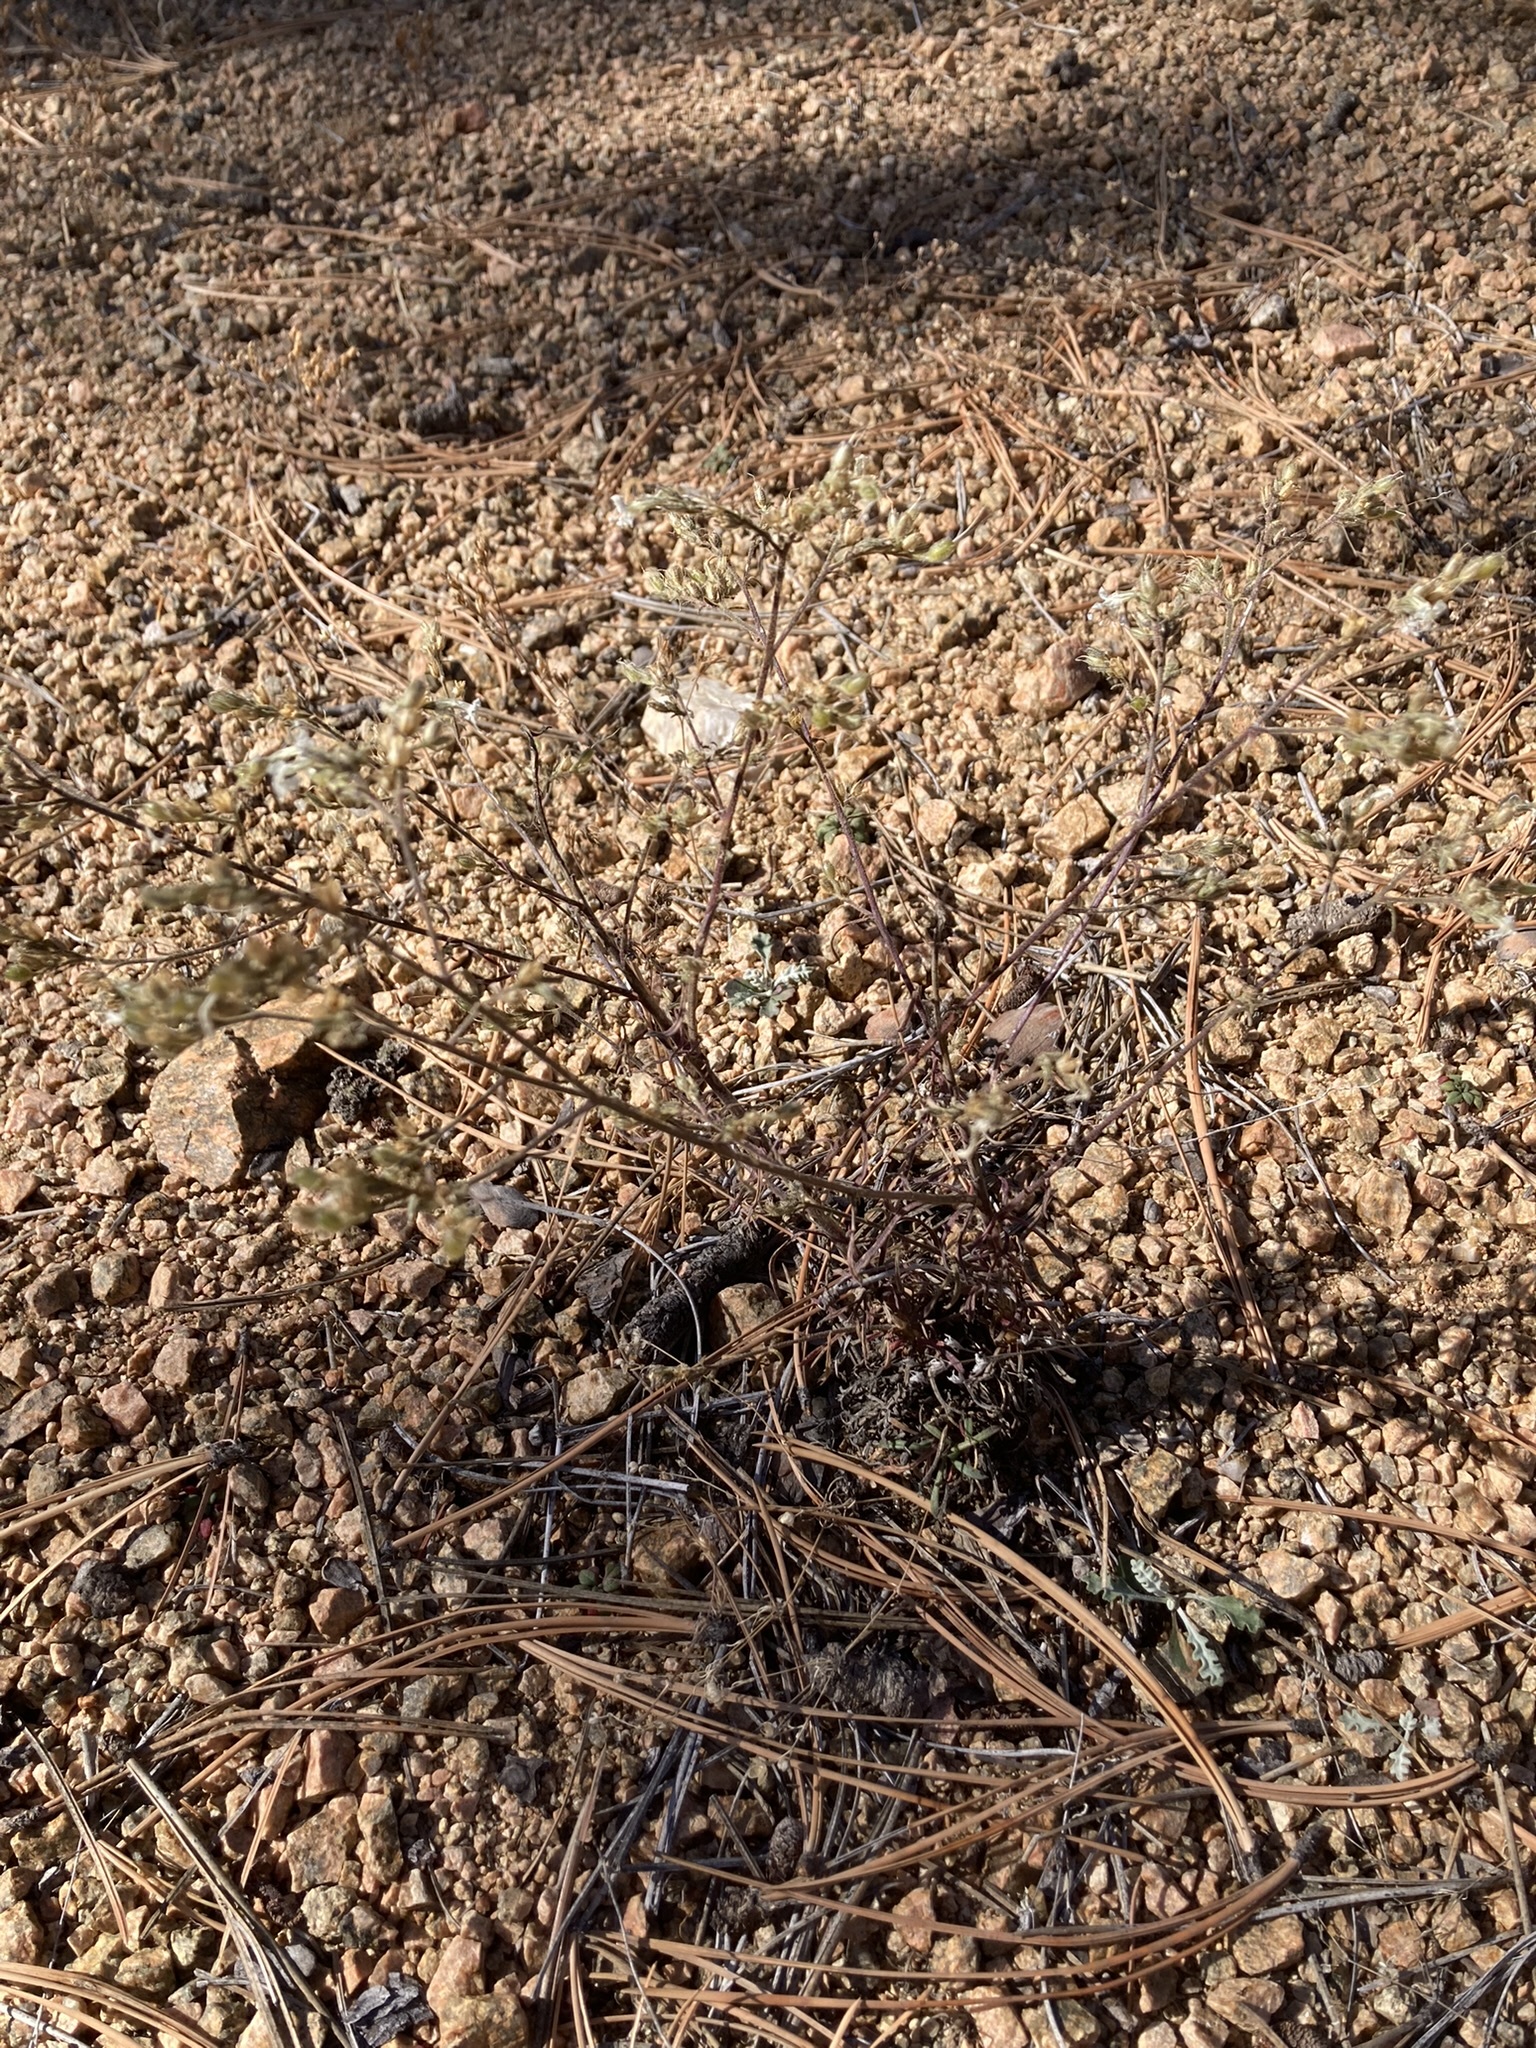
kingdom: Plantae
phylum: Tracheophyta
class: Magnoliopsida
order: Ericales
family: Polemoniaceae
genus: Aliciella
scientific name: Aliciella pinnatifida
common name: Sticky gilia
